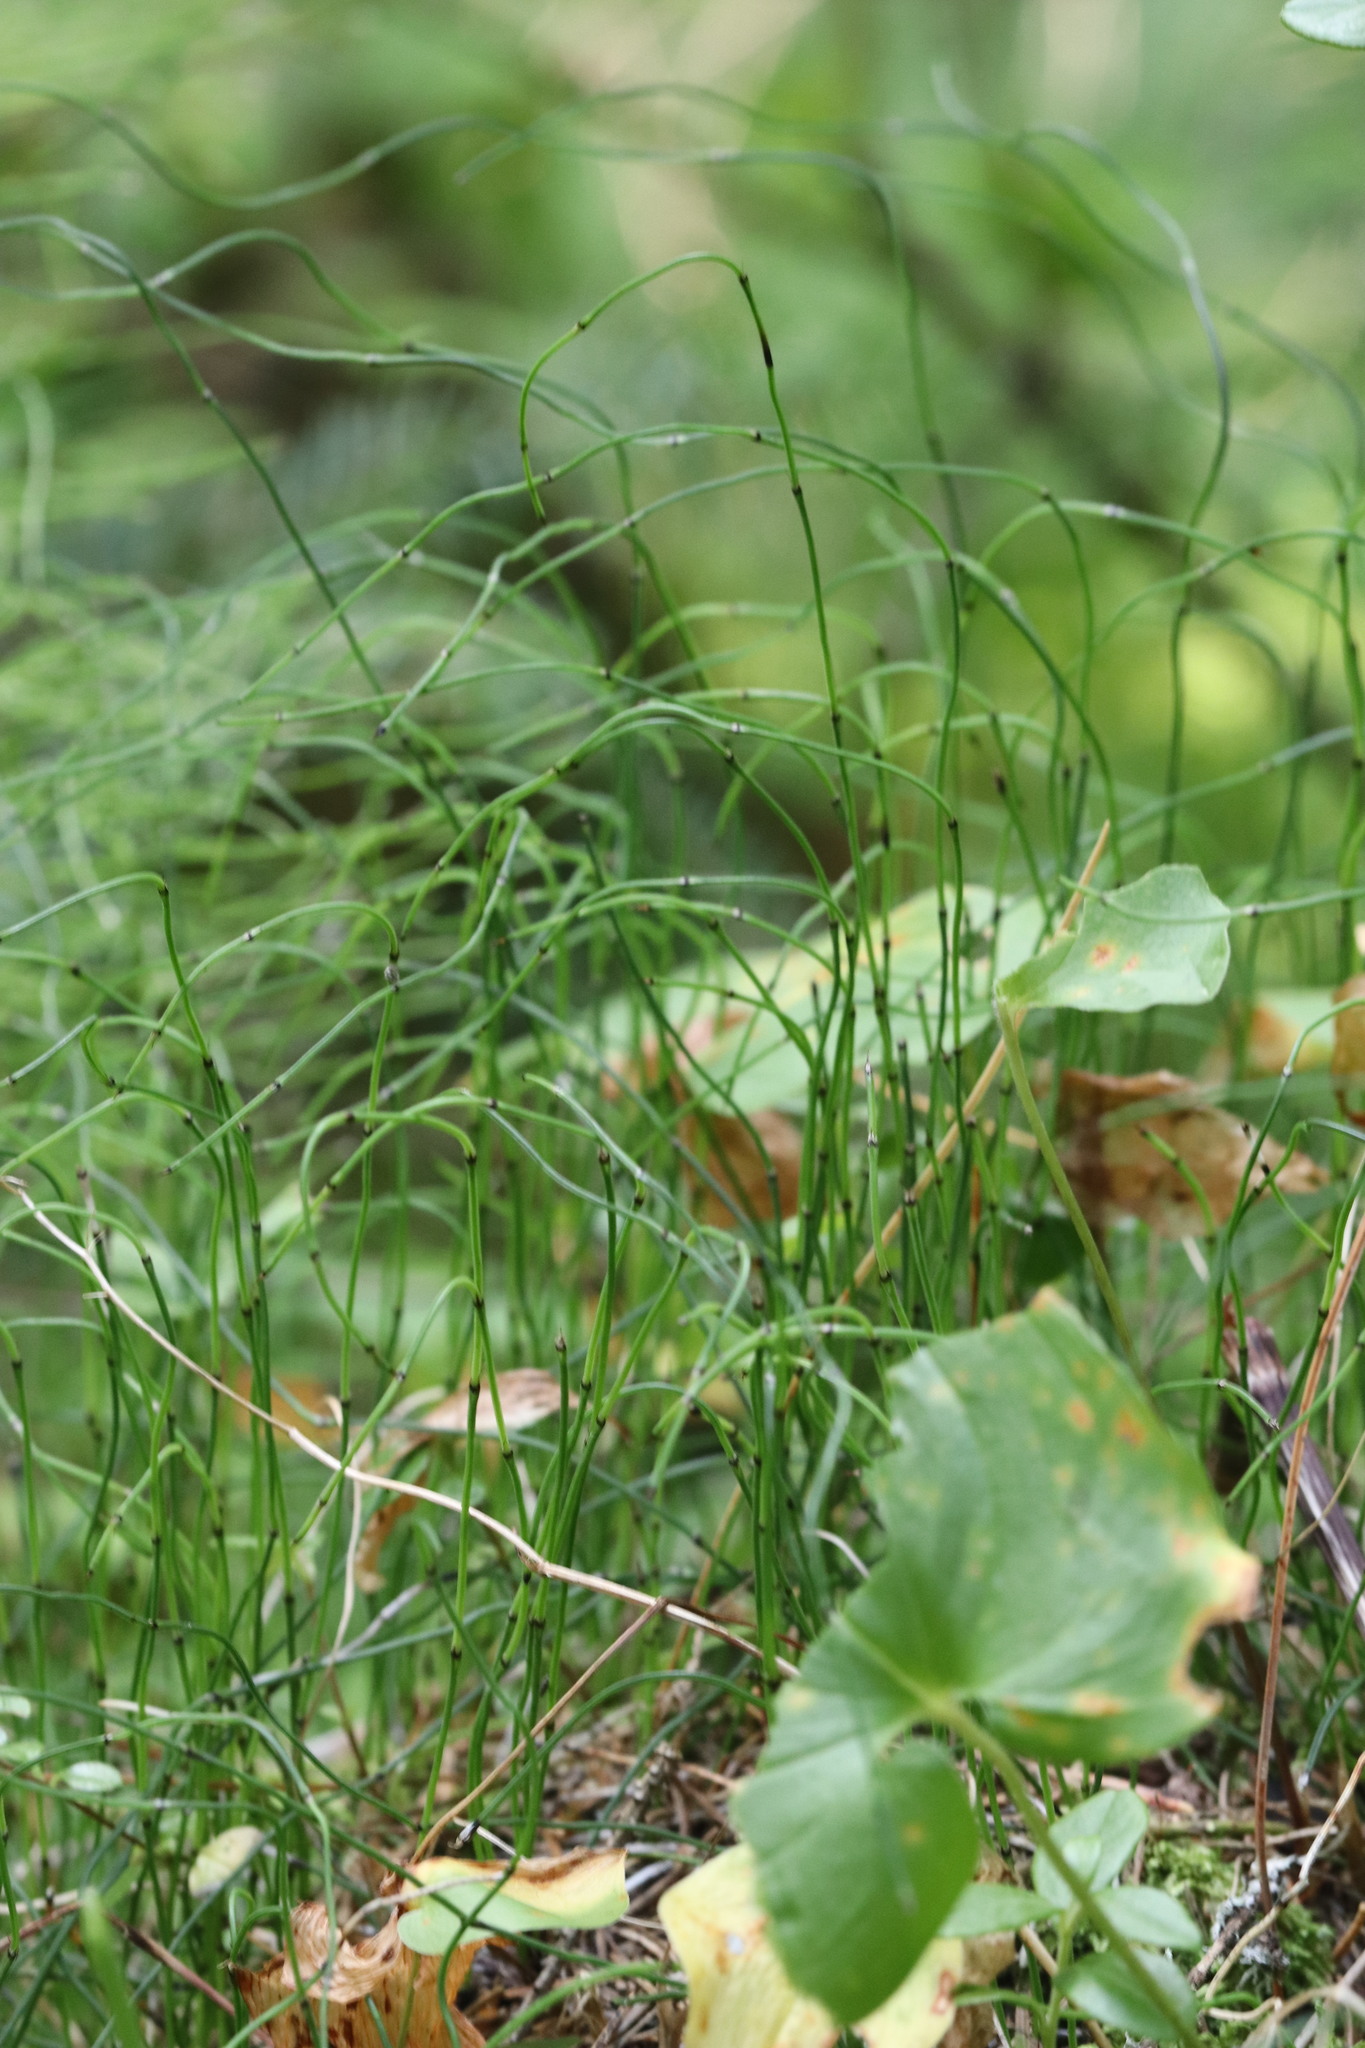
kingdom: Plantae
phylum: Tracheophyta
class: Polypodiopsida
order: Equisetales
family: Equisetaceae
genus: Equisetum
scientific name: Equisetum scirpoides
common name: Delicate horsetail
